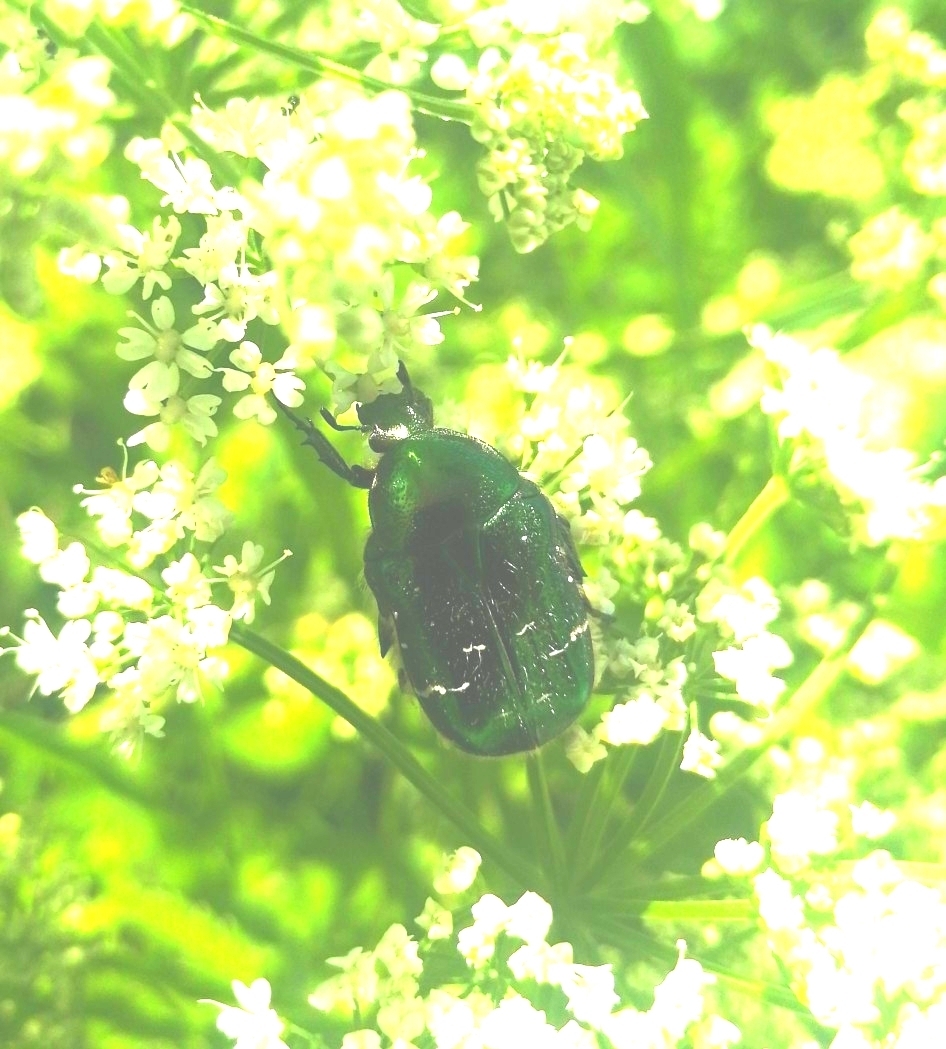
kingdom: Animalia
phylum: Arthropoda
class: Insecta
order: Coleoptera
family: Scarabaeidae
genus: Cetonia
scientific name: Cetonia aurata
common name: Rose chafer
